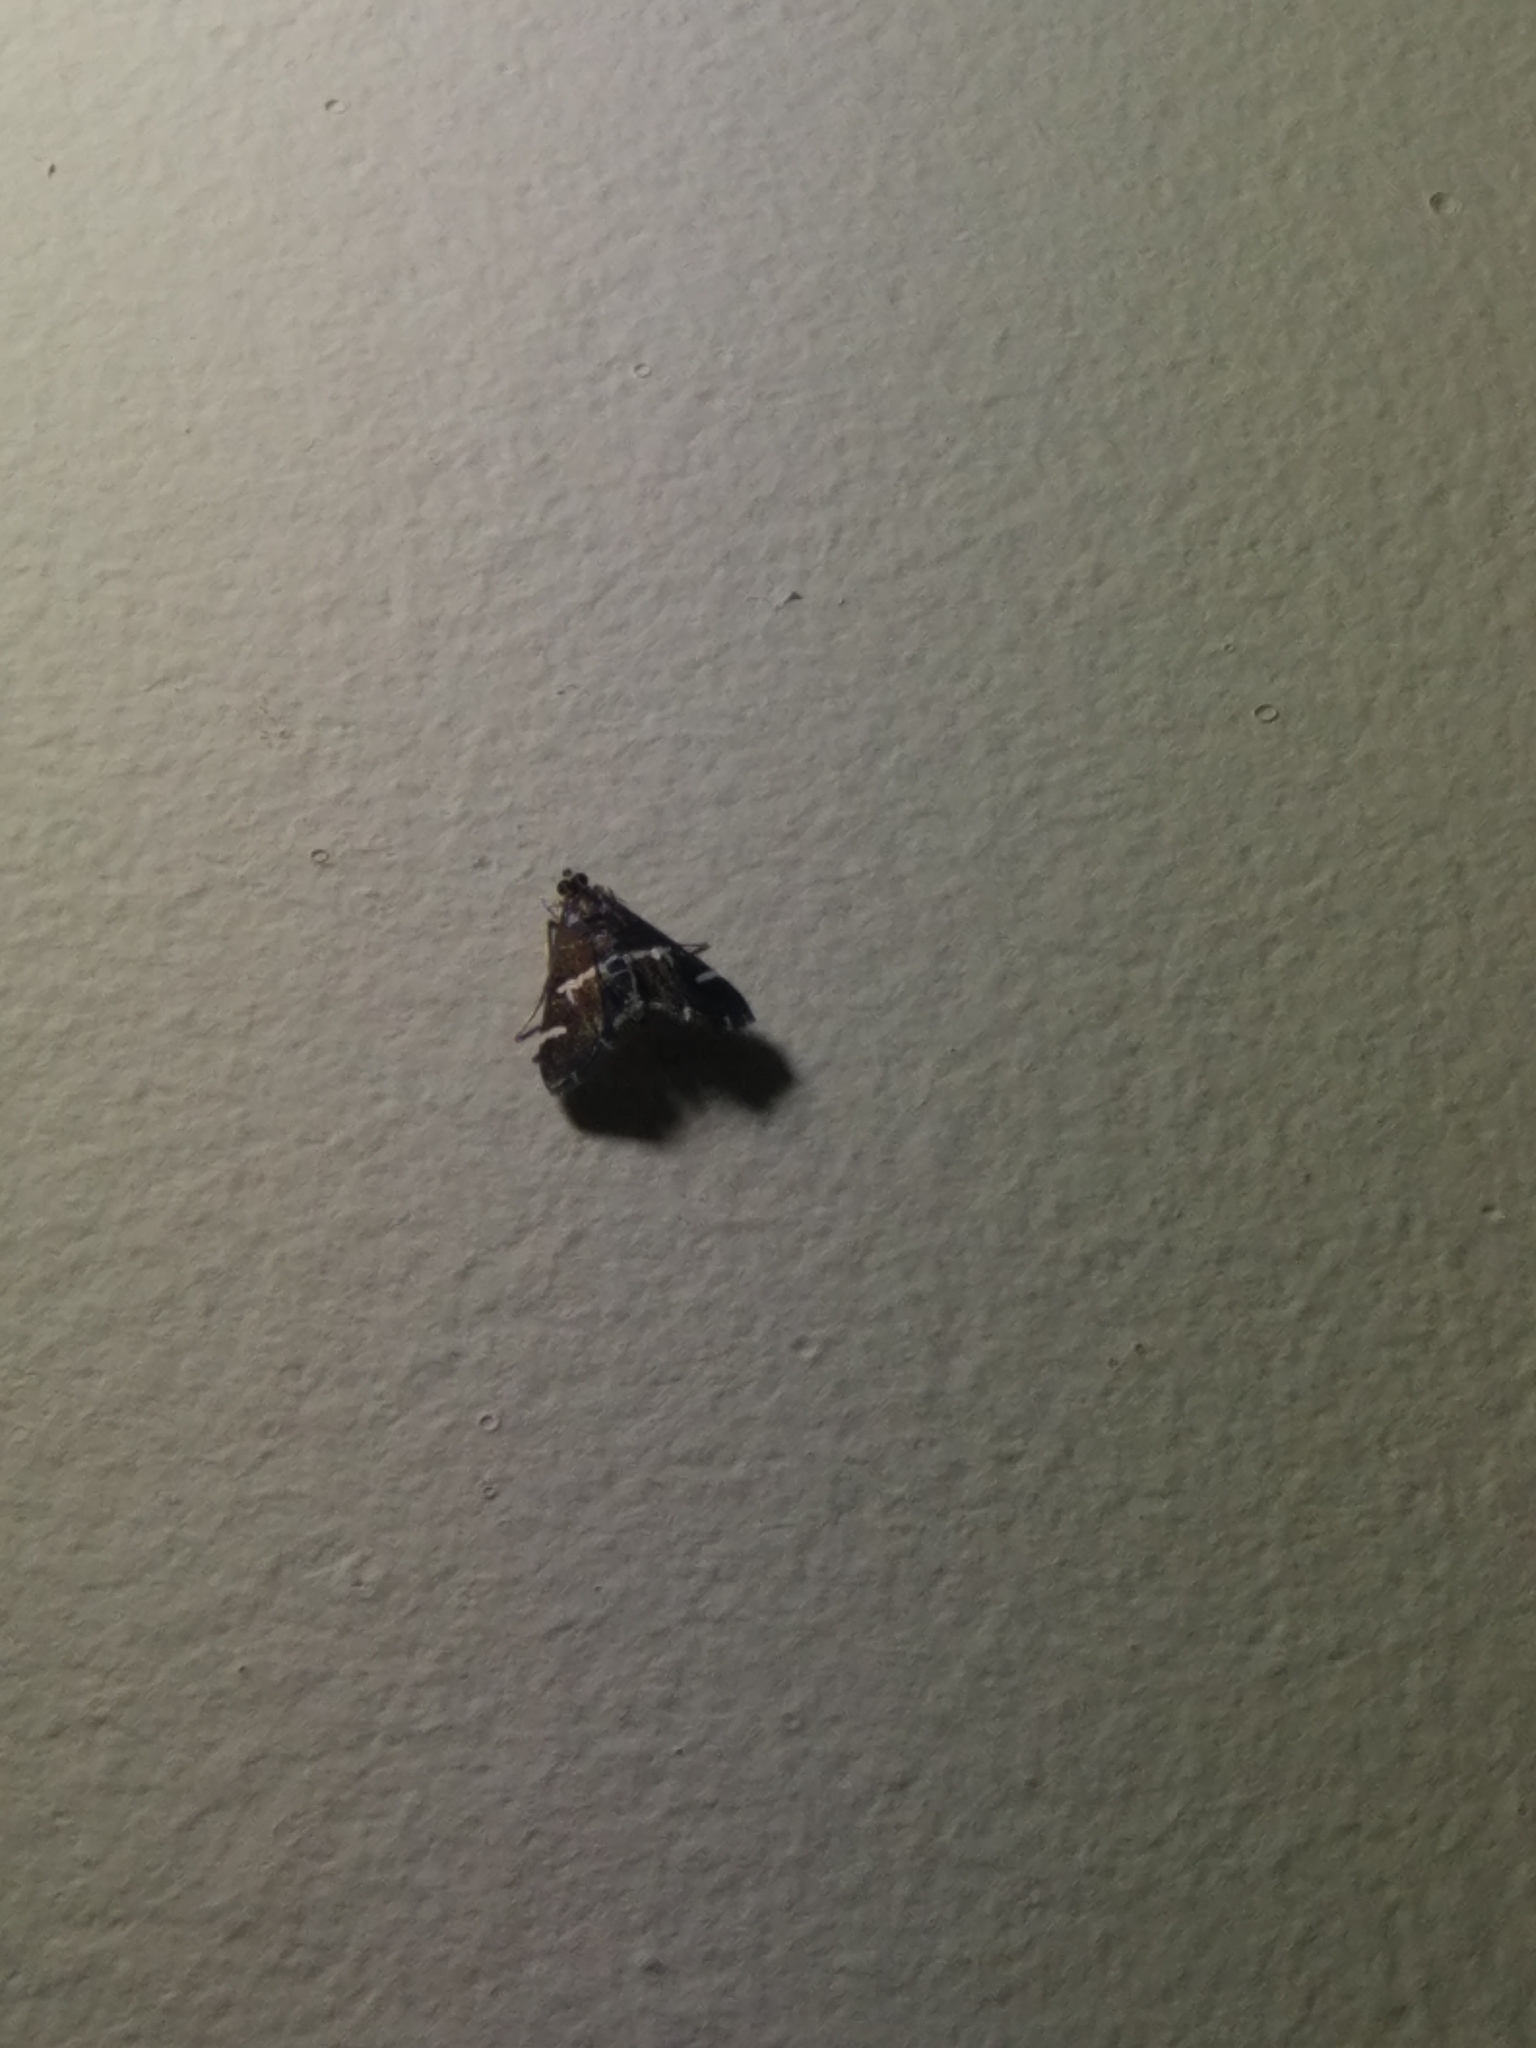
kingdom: Animalia
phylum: Arthropoda
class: Insecta
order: Lepidoptera
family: Crambidae
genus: Spoladea
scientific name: Spoladea recurvalis
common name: Beet webworm moth
